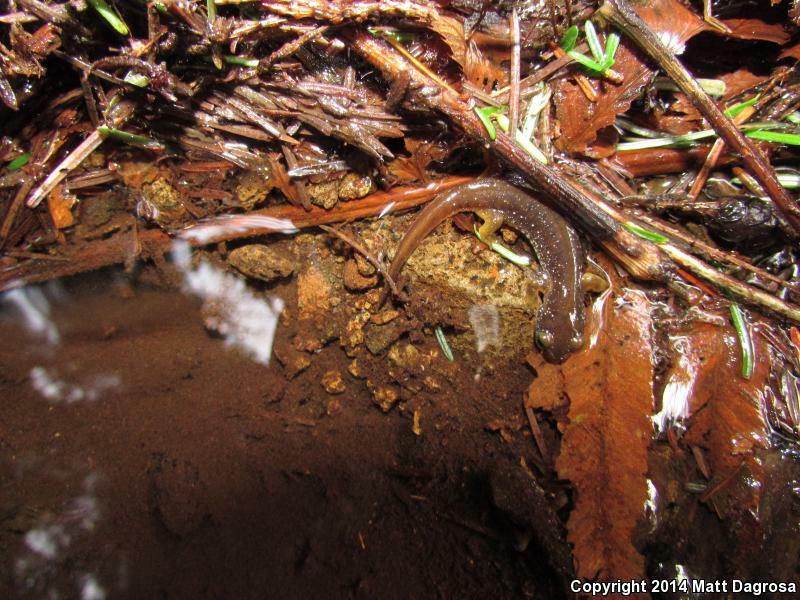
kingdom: Animalia
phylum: Chordata
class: Amphibia
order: Caudata
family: Rhyacotritonidae
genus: Rhyacotriton
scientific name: Rhyacotriton kezeri
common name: Columbia torrent salamander
